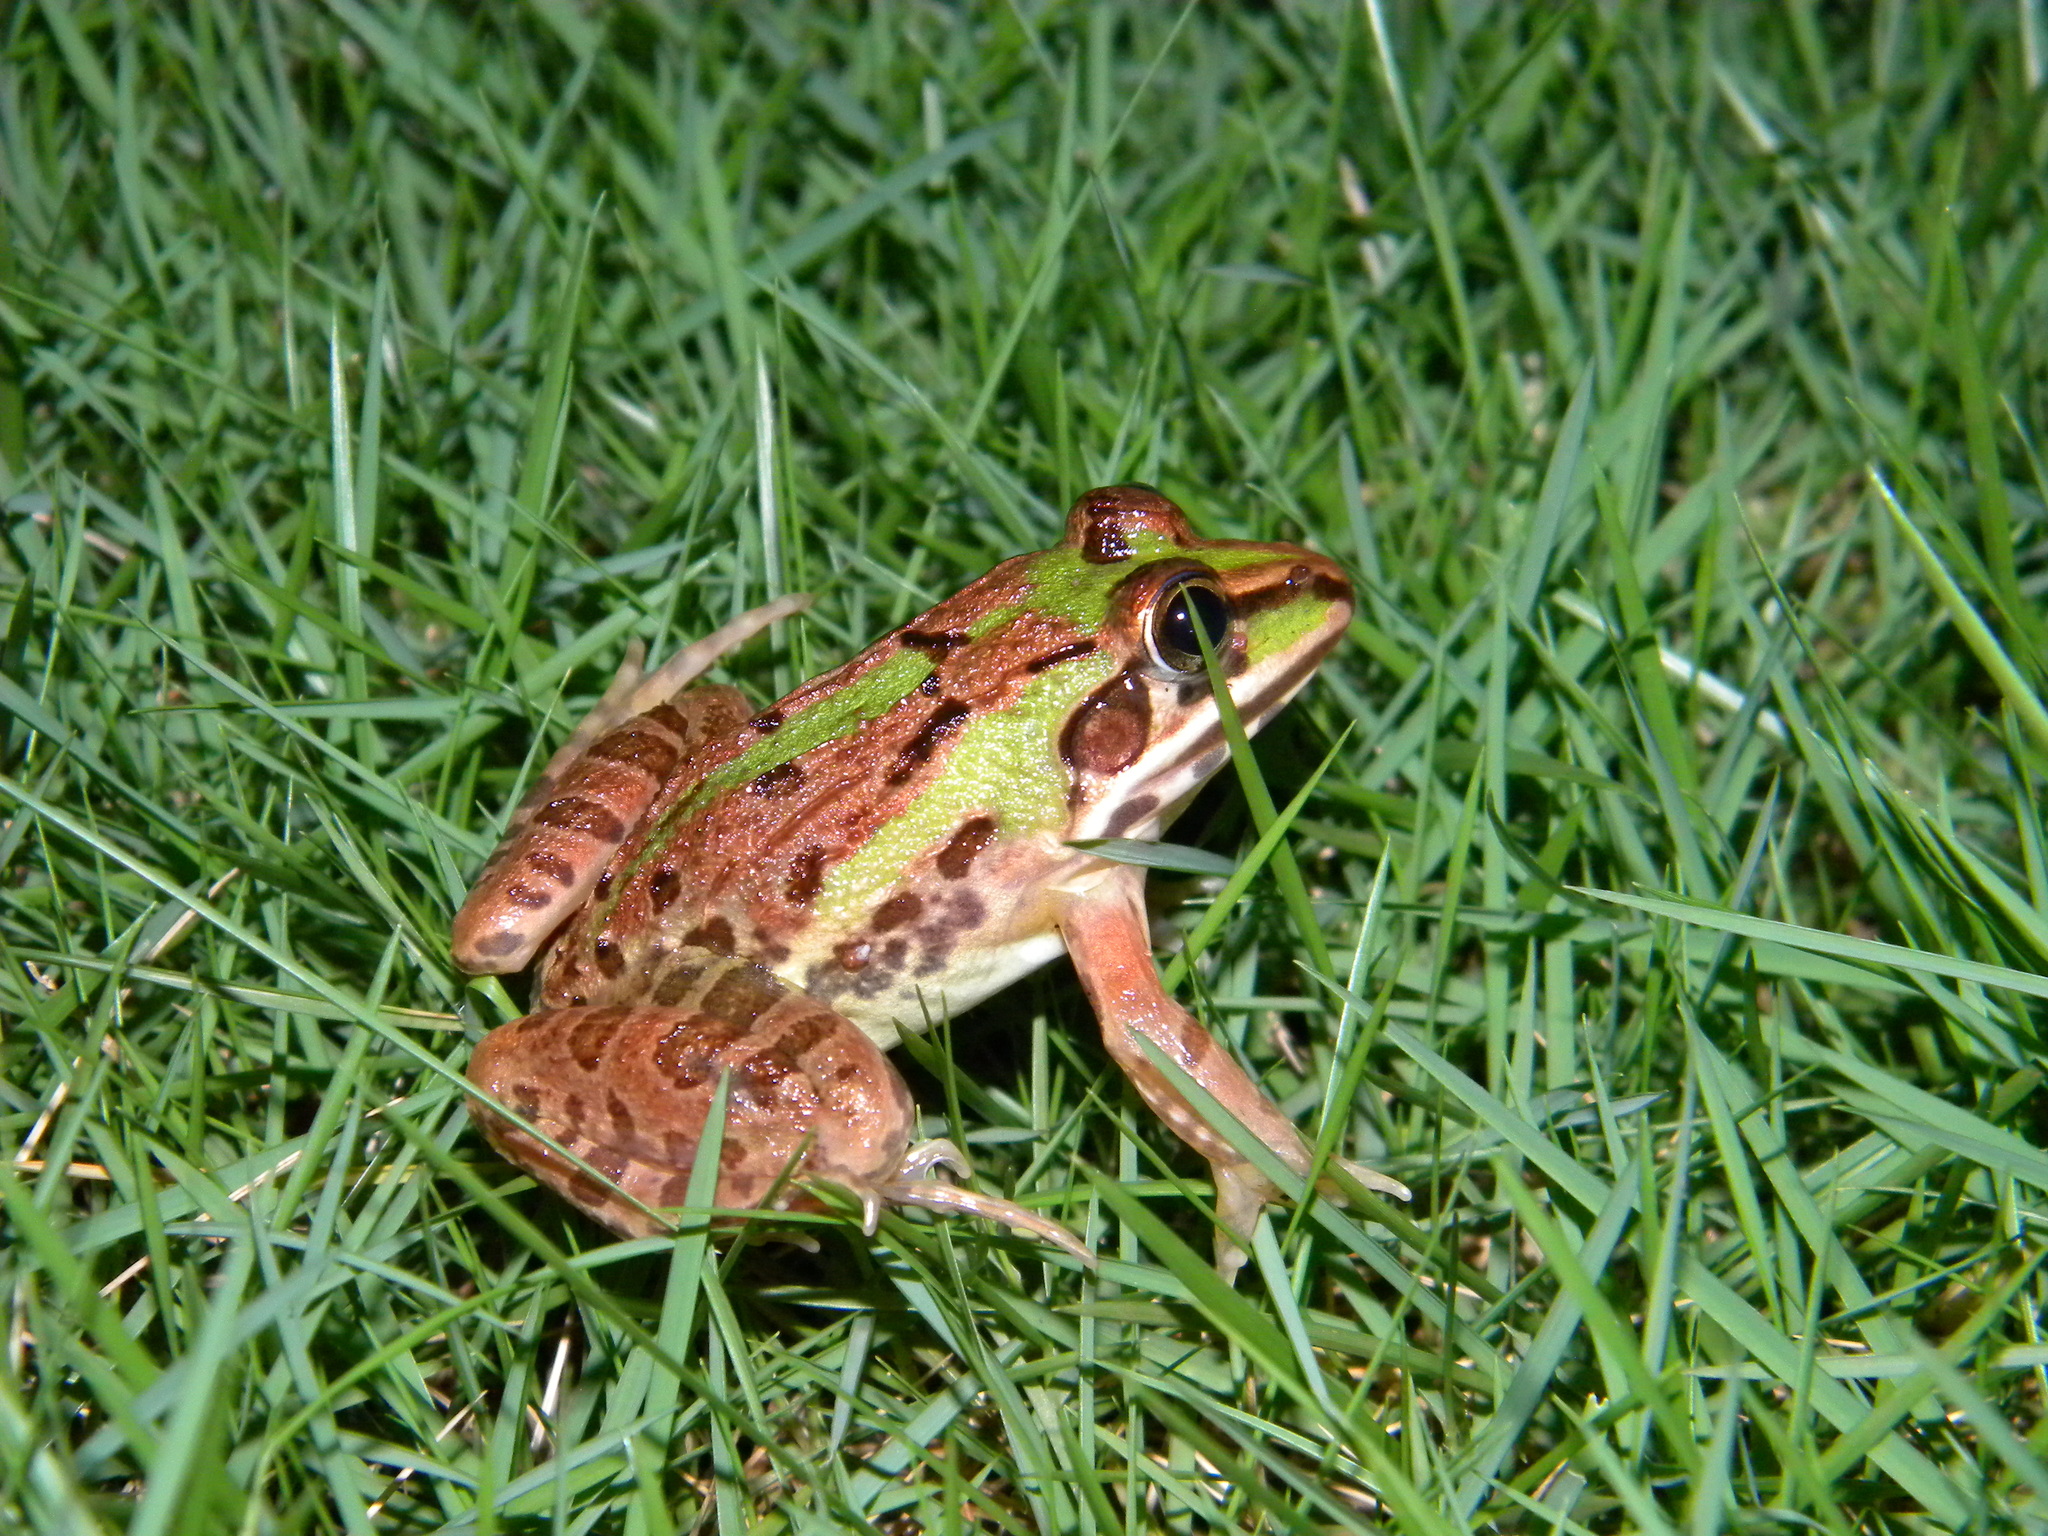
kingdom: Animalia
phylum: Chordata
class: Amphibia
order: Anura
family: Dicroglossidae
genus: Hoplobatrachus
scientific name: Hoplobatrachus tigerinus
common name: Indian bullfrog
